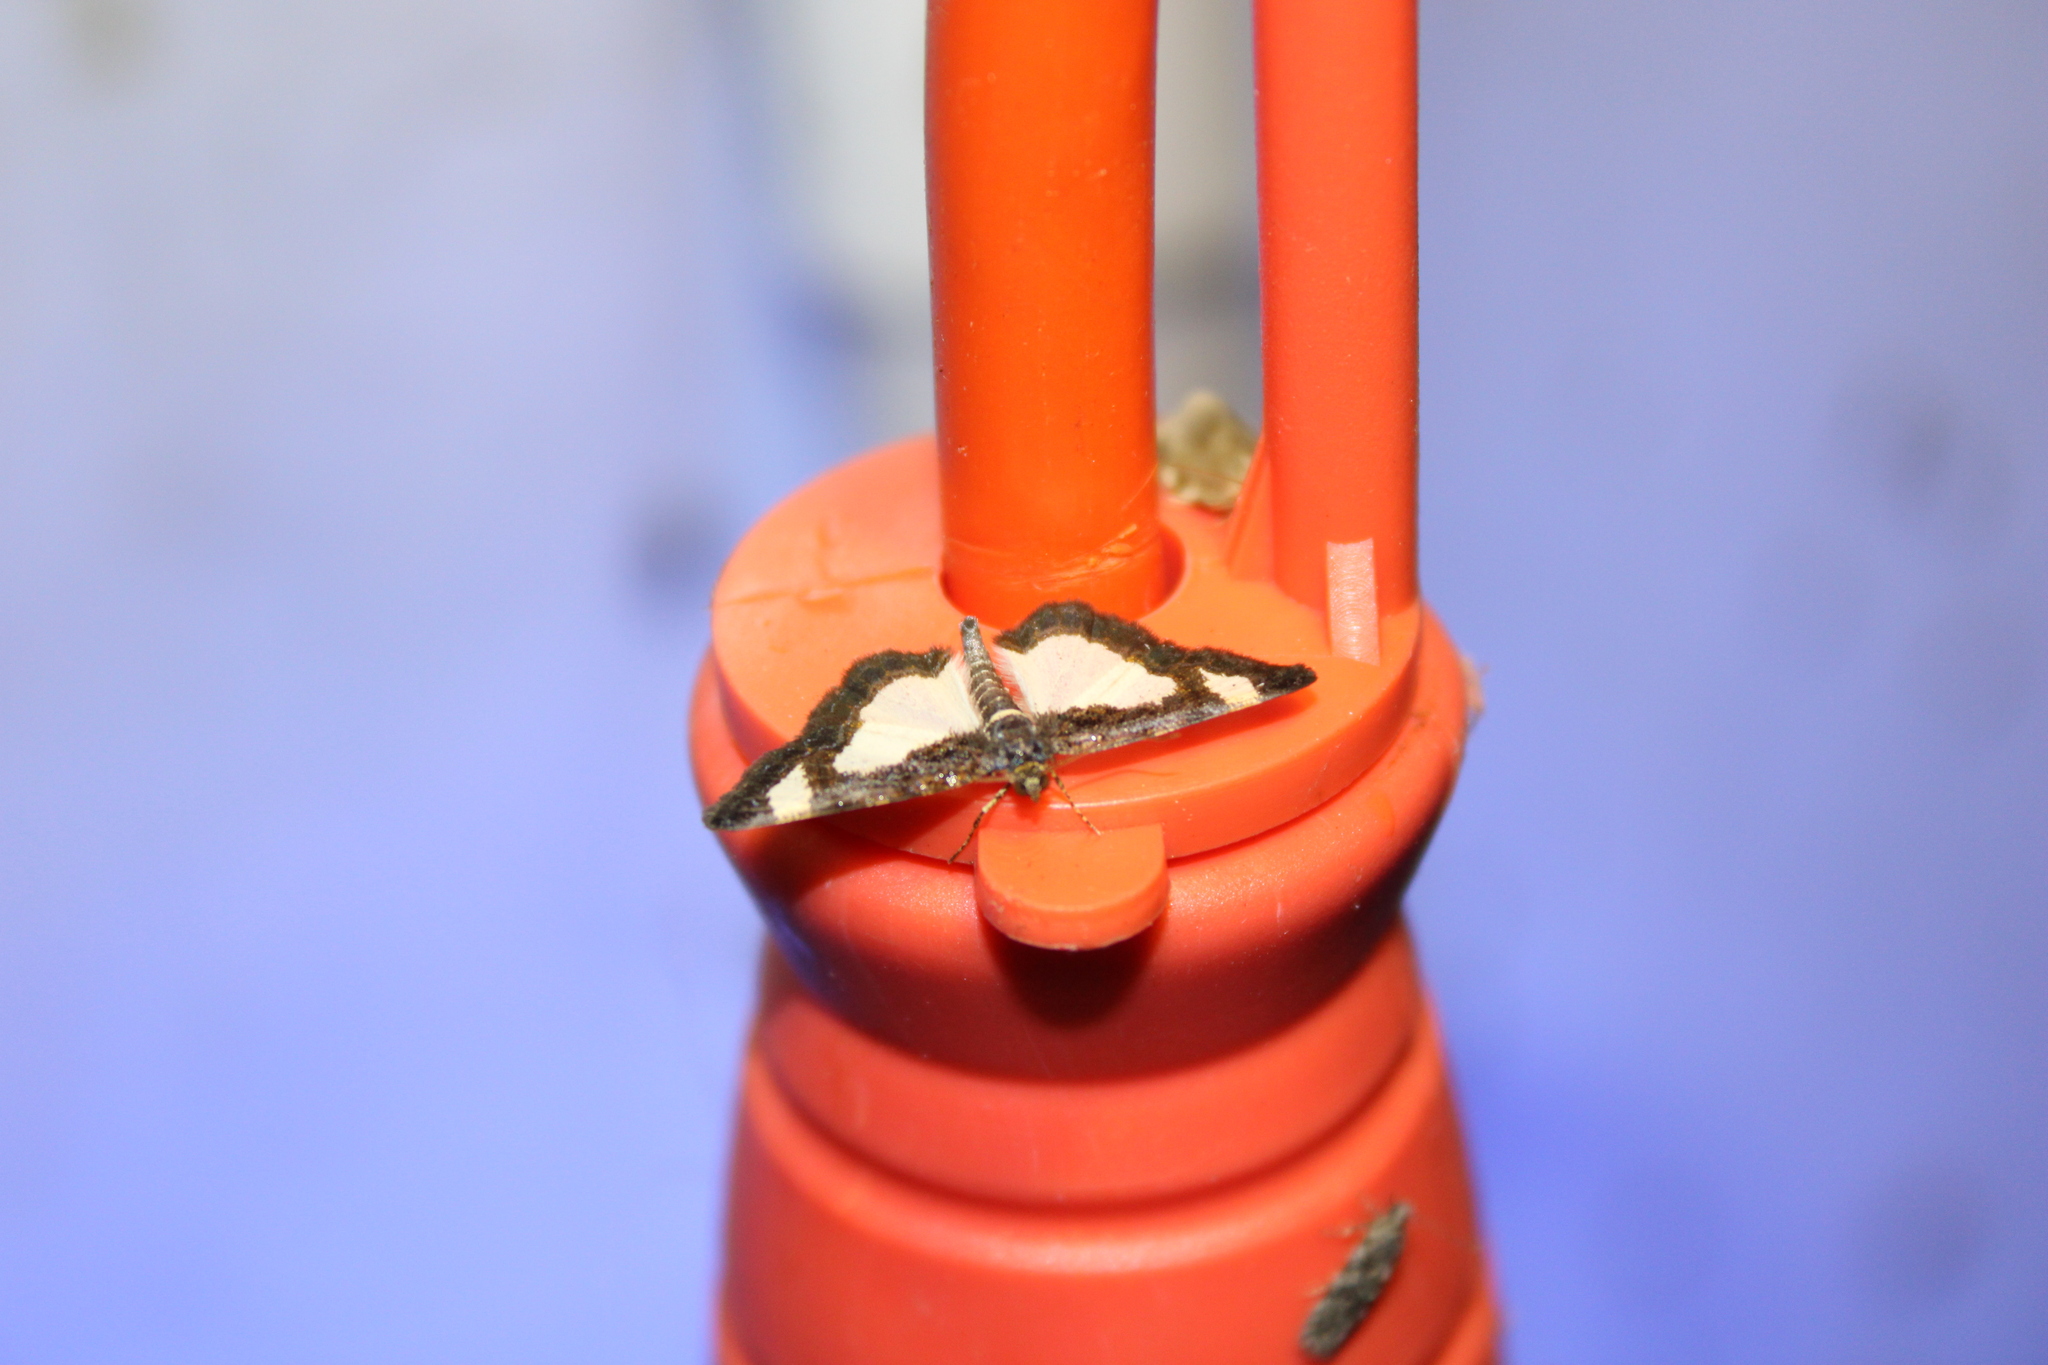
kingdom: Animalia
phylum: Arthropoda
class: Insecta
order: Lepidoptera
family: Geometridae
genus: Heliomata
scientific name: Heliomata cycladata
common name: Common spring moth
